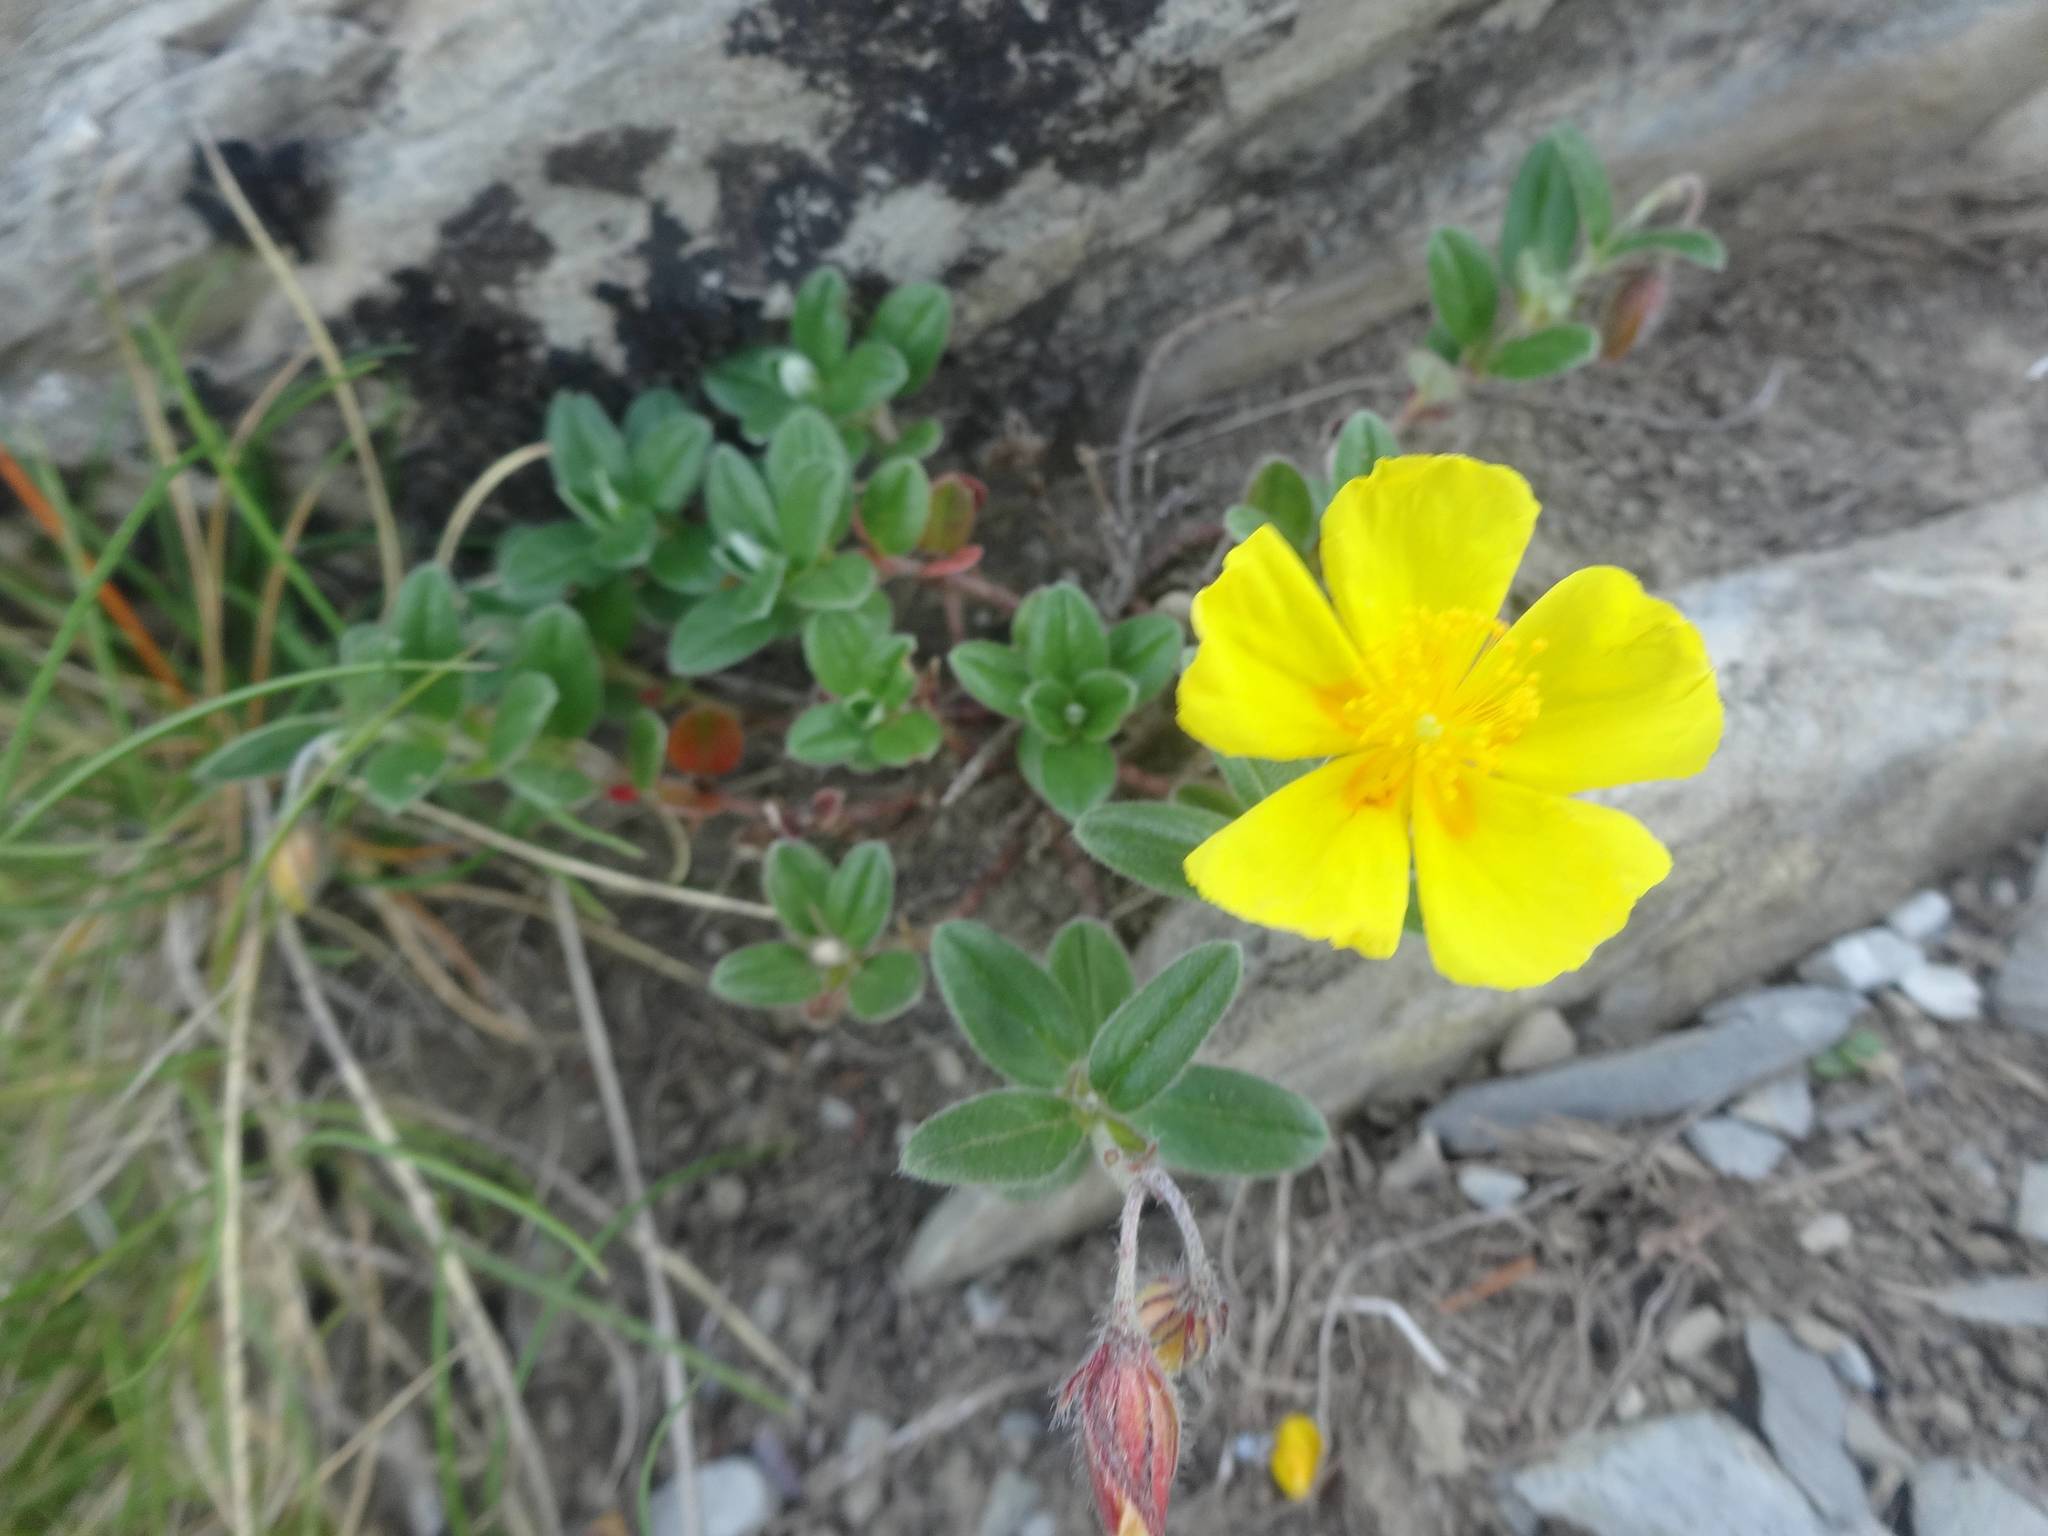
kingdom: Plantae
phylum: Tracheophyta
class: Magnoliopsida
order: Malvales
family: Cistaceae
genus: Helianthemum
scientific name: Helianthemum nummularium
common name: Common rock-rose
